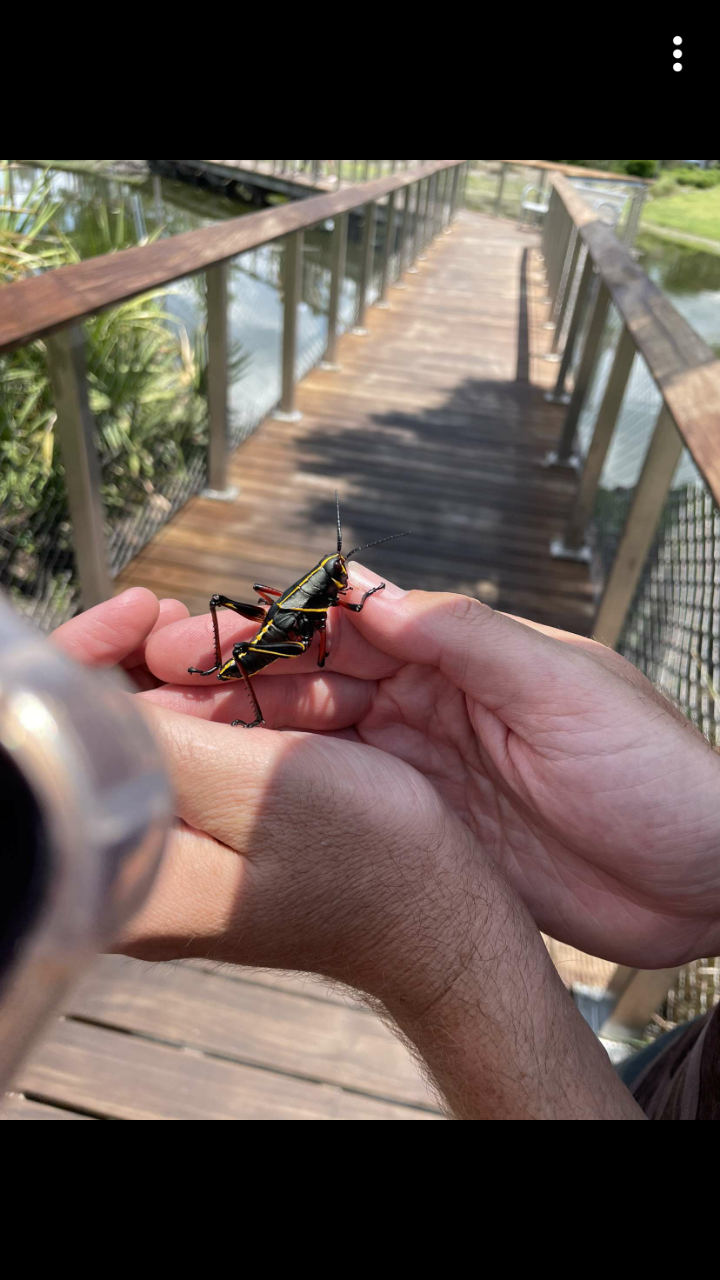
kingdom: Animalia
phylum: Arthropoda
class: Insecta
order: Orthoptera
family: Romaleidae
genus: Romalea
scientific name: Romalea microptera
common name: Eastern lubber grasshopper
